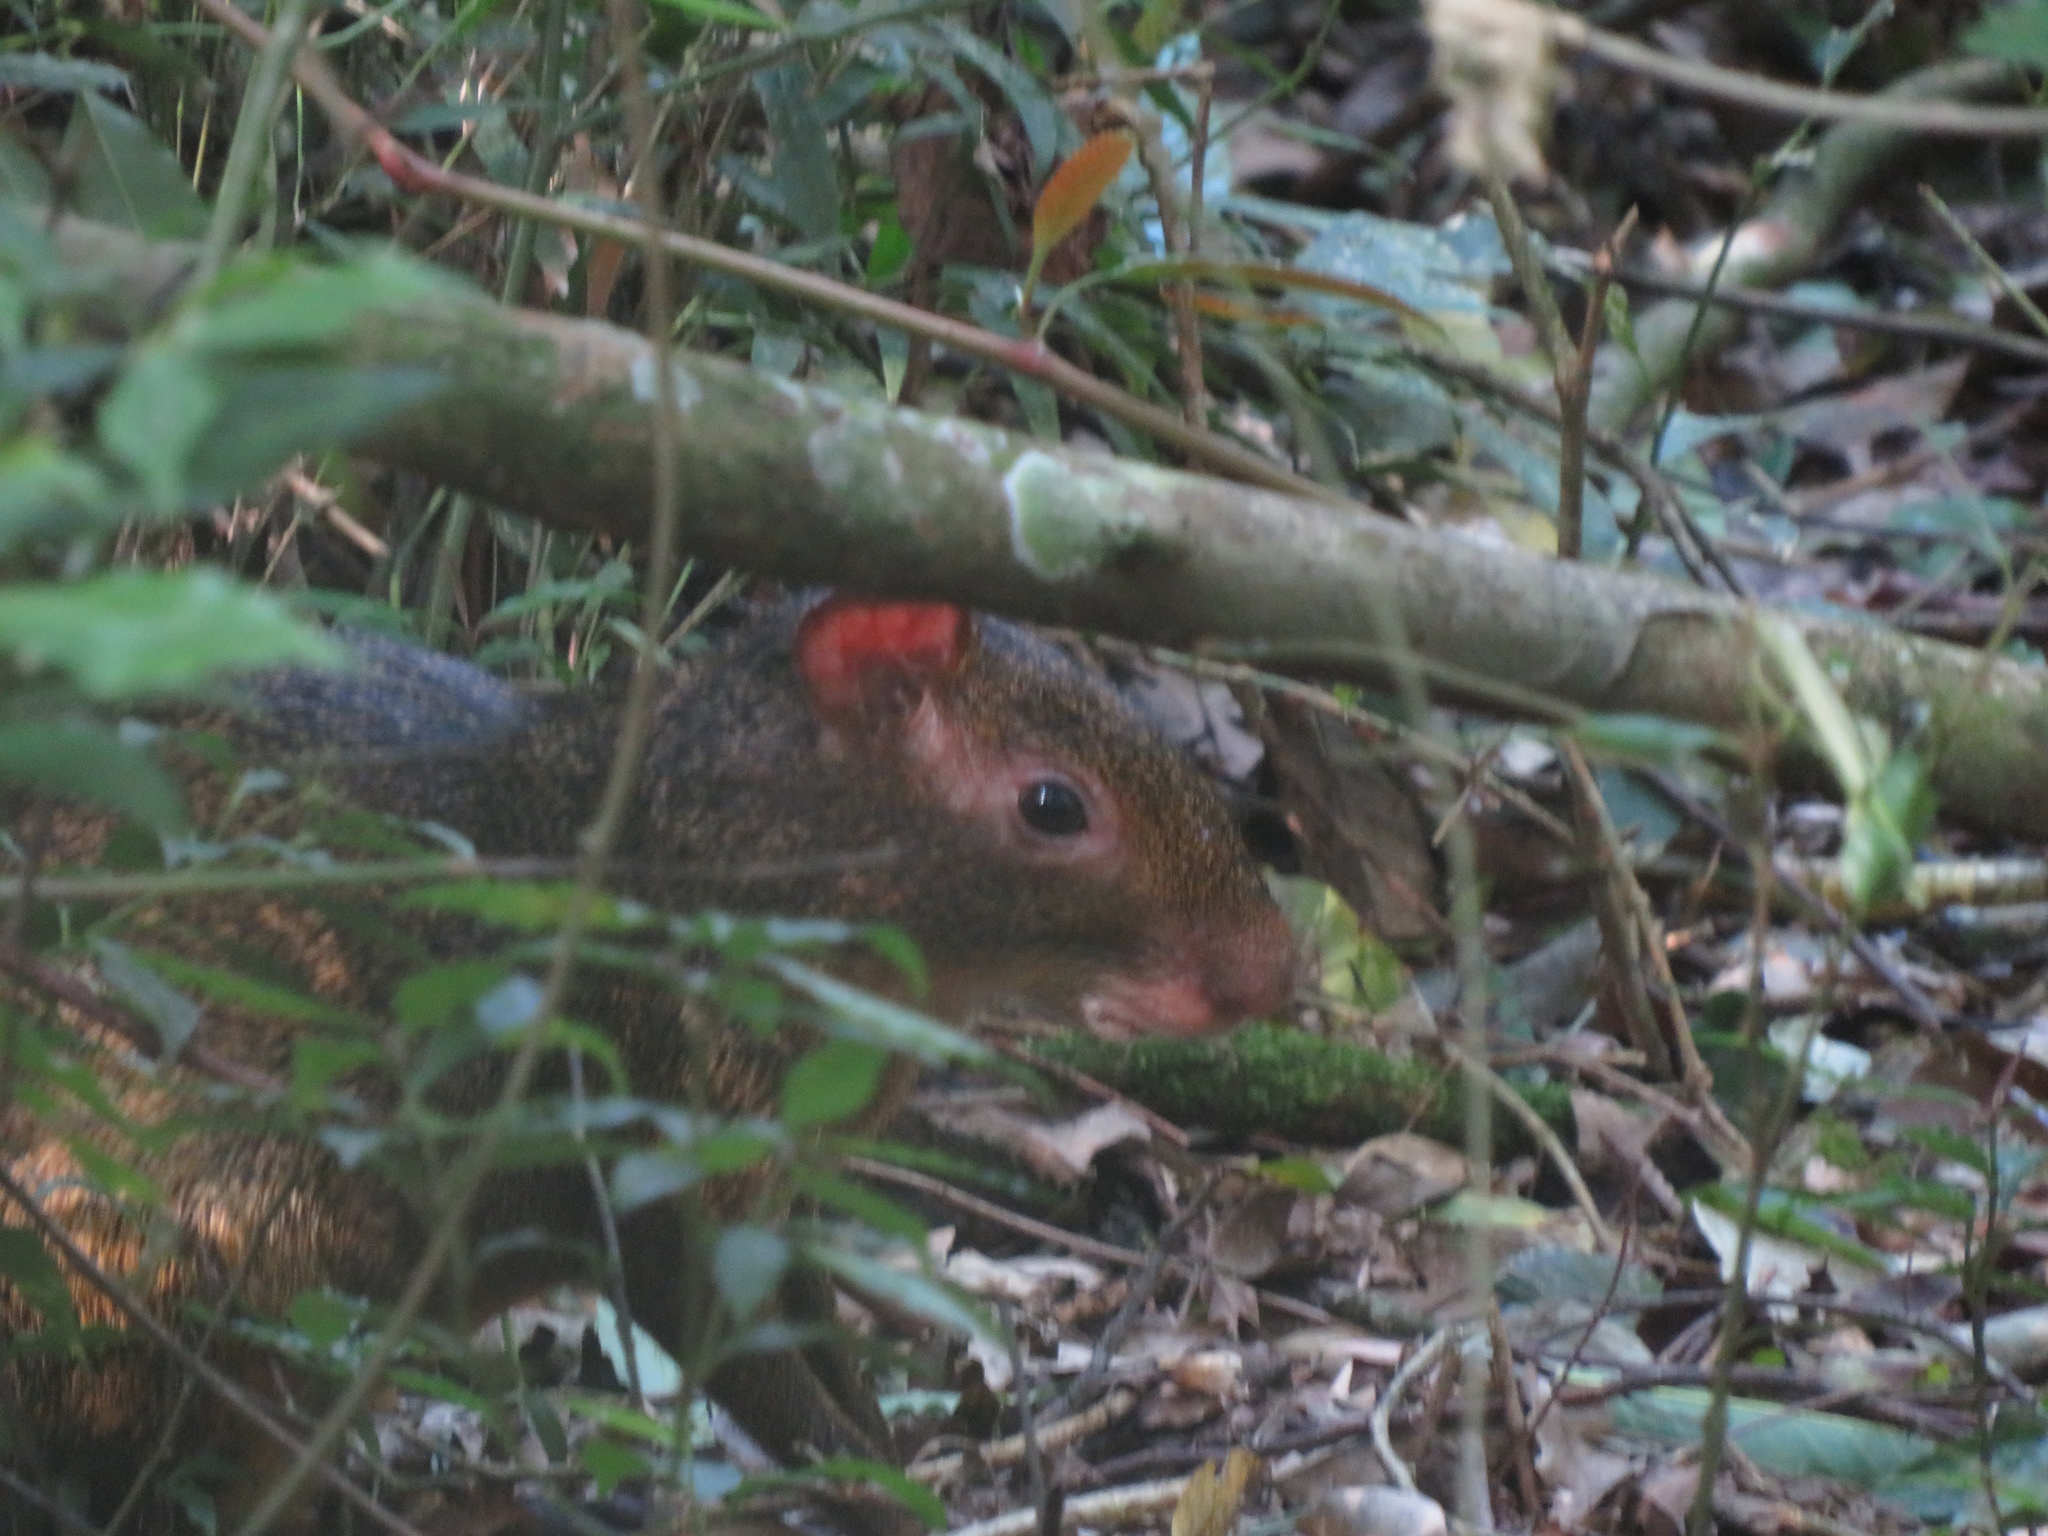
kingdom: Animalia
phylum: Chordata
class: Mammalia
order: Rodentia
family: Dasyproctidae
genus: Dasyprocta
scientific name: Dasyprocta azarae
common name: Azara's agouti
